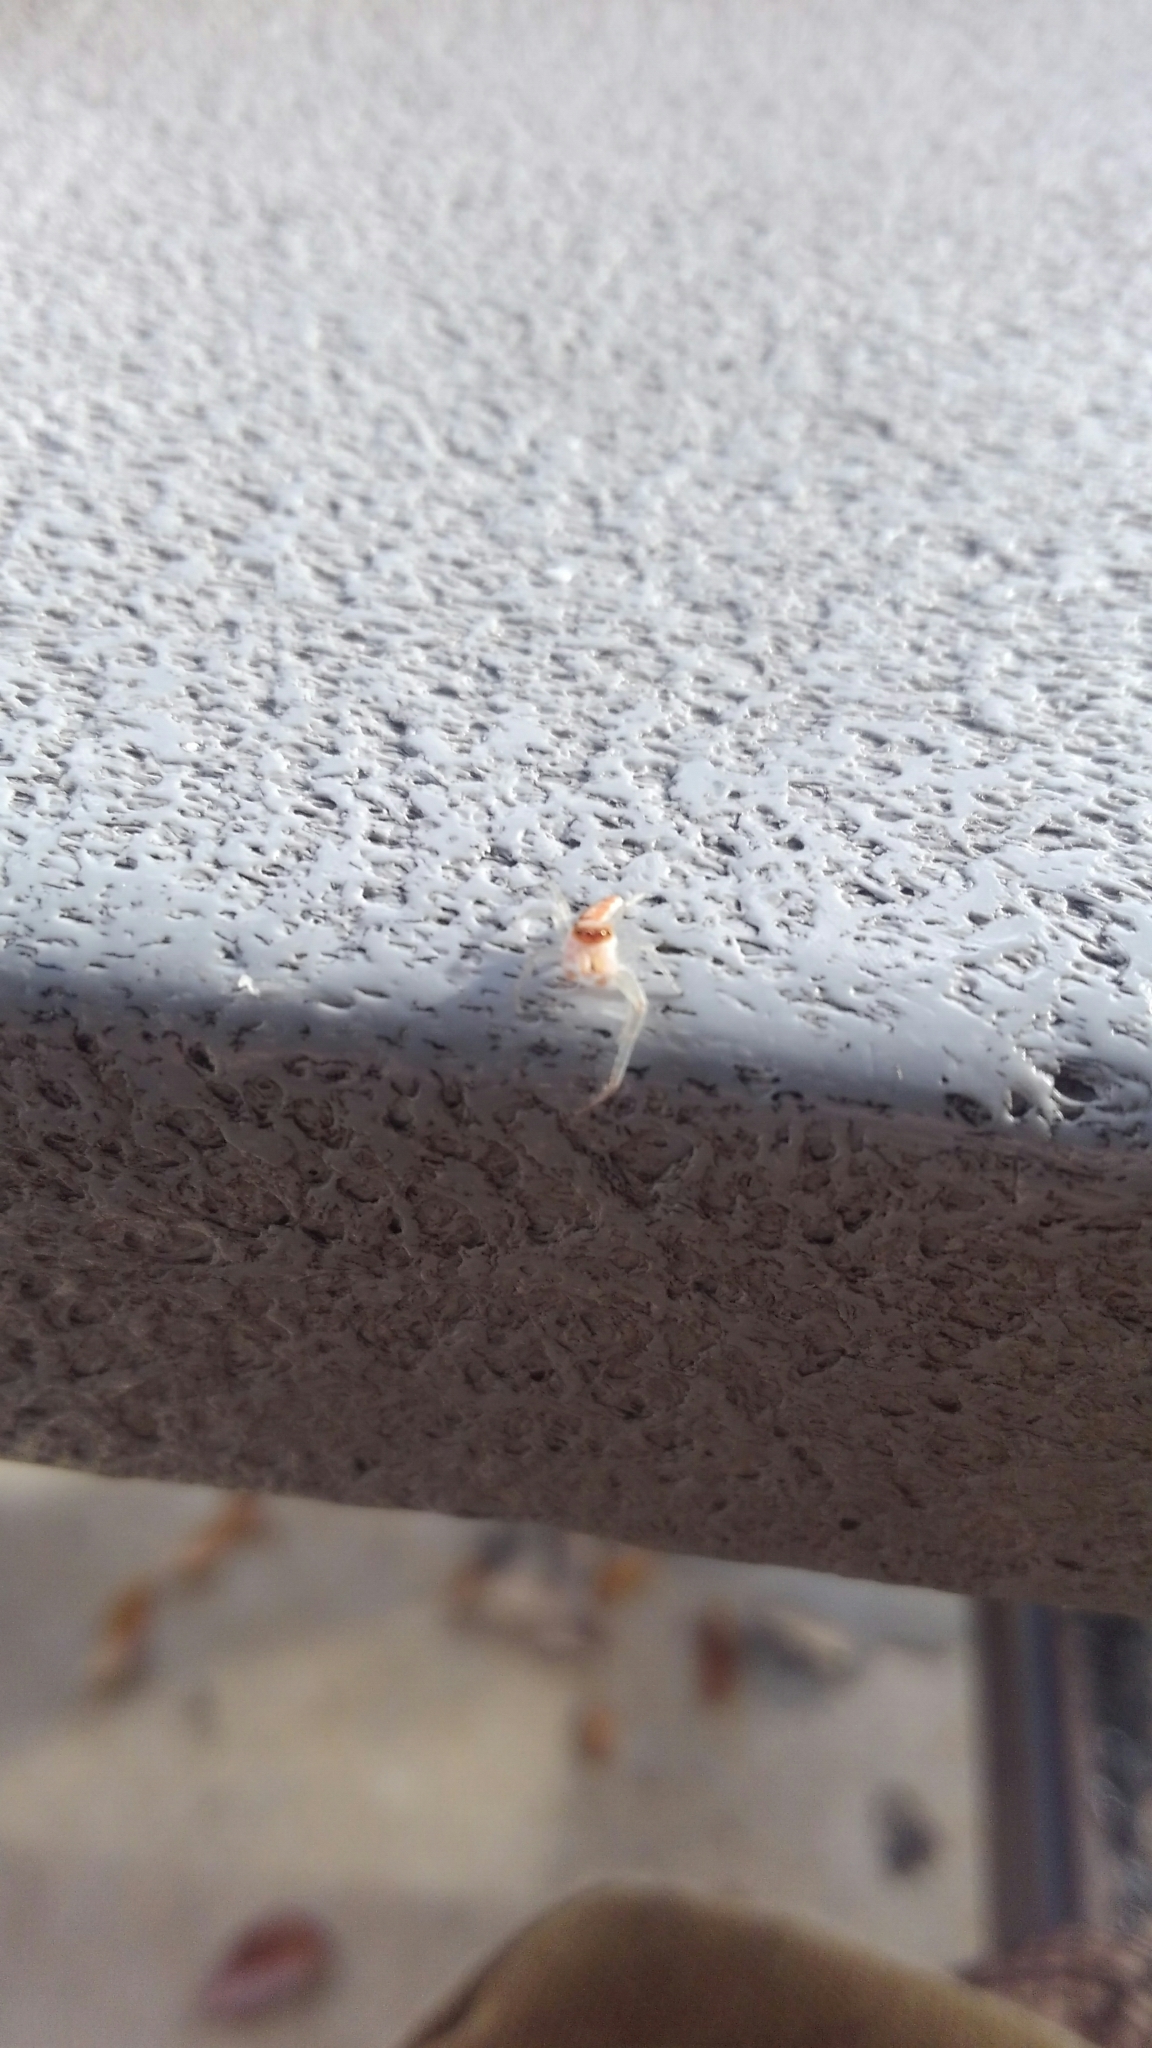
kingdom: Animalia
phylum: Arthropoda
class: Arachnida
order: Araneae
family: Salticidae
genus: Hentzia
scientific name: Hentzia mitrata
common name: White-jawed jumping spider
